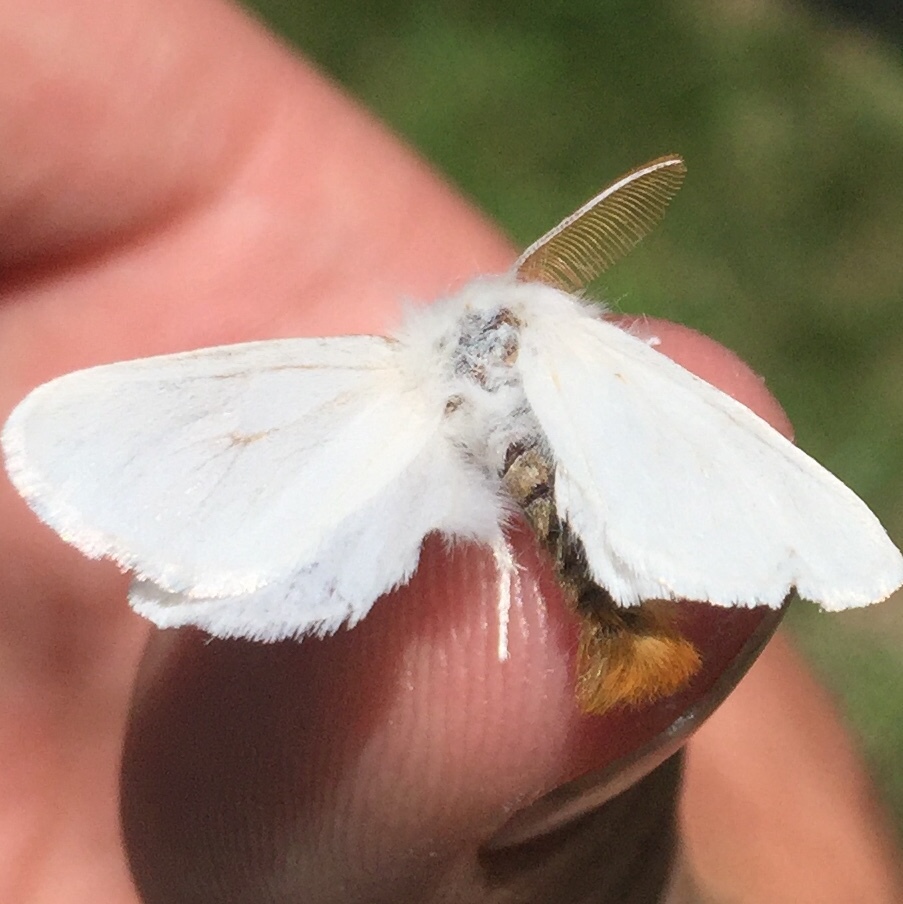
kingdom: Animalia
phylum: Arthropoda
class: Insecta
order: Lepidoptera
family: Erebidae
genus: Euproctis
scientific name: Euproctis chrysorrhoea
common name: Brown-tail
